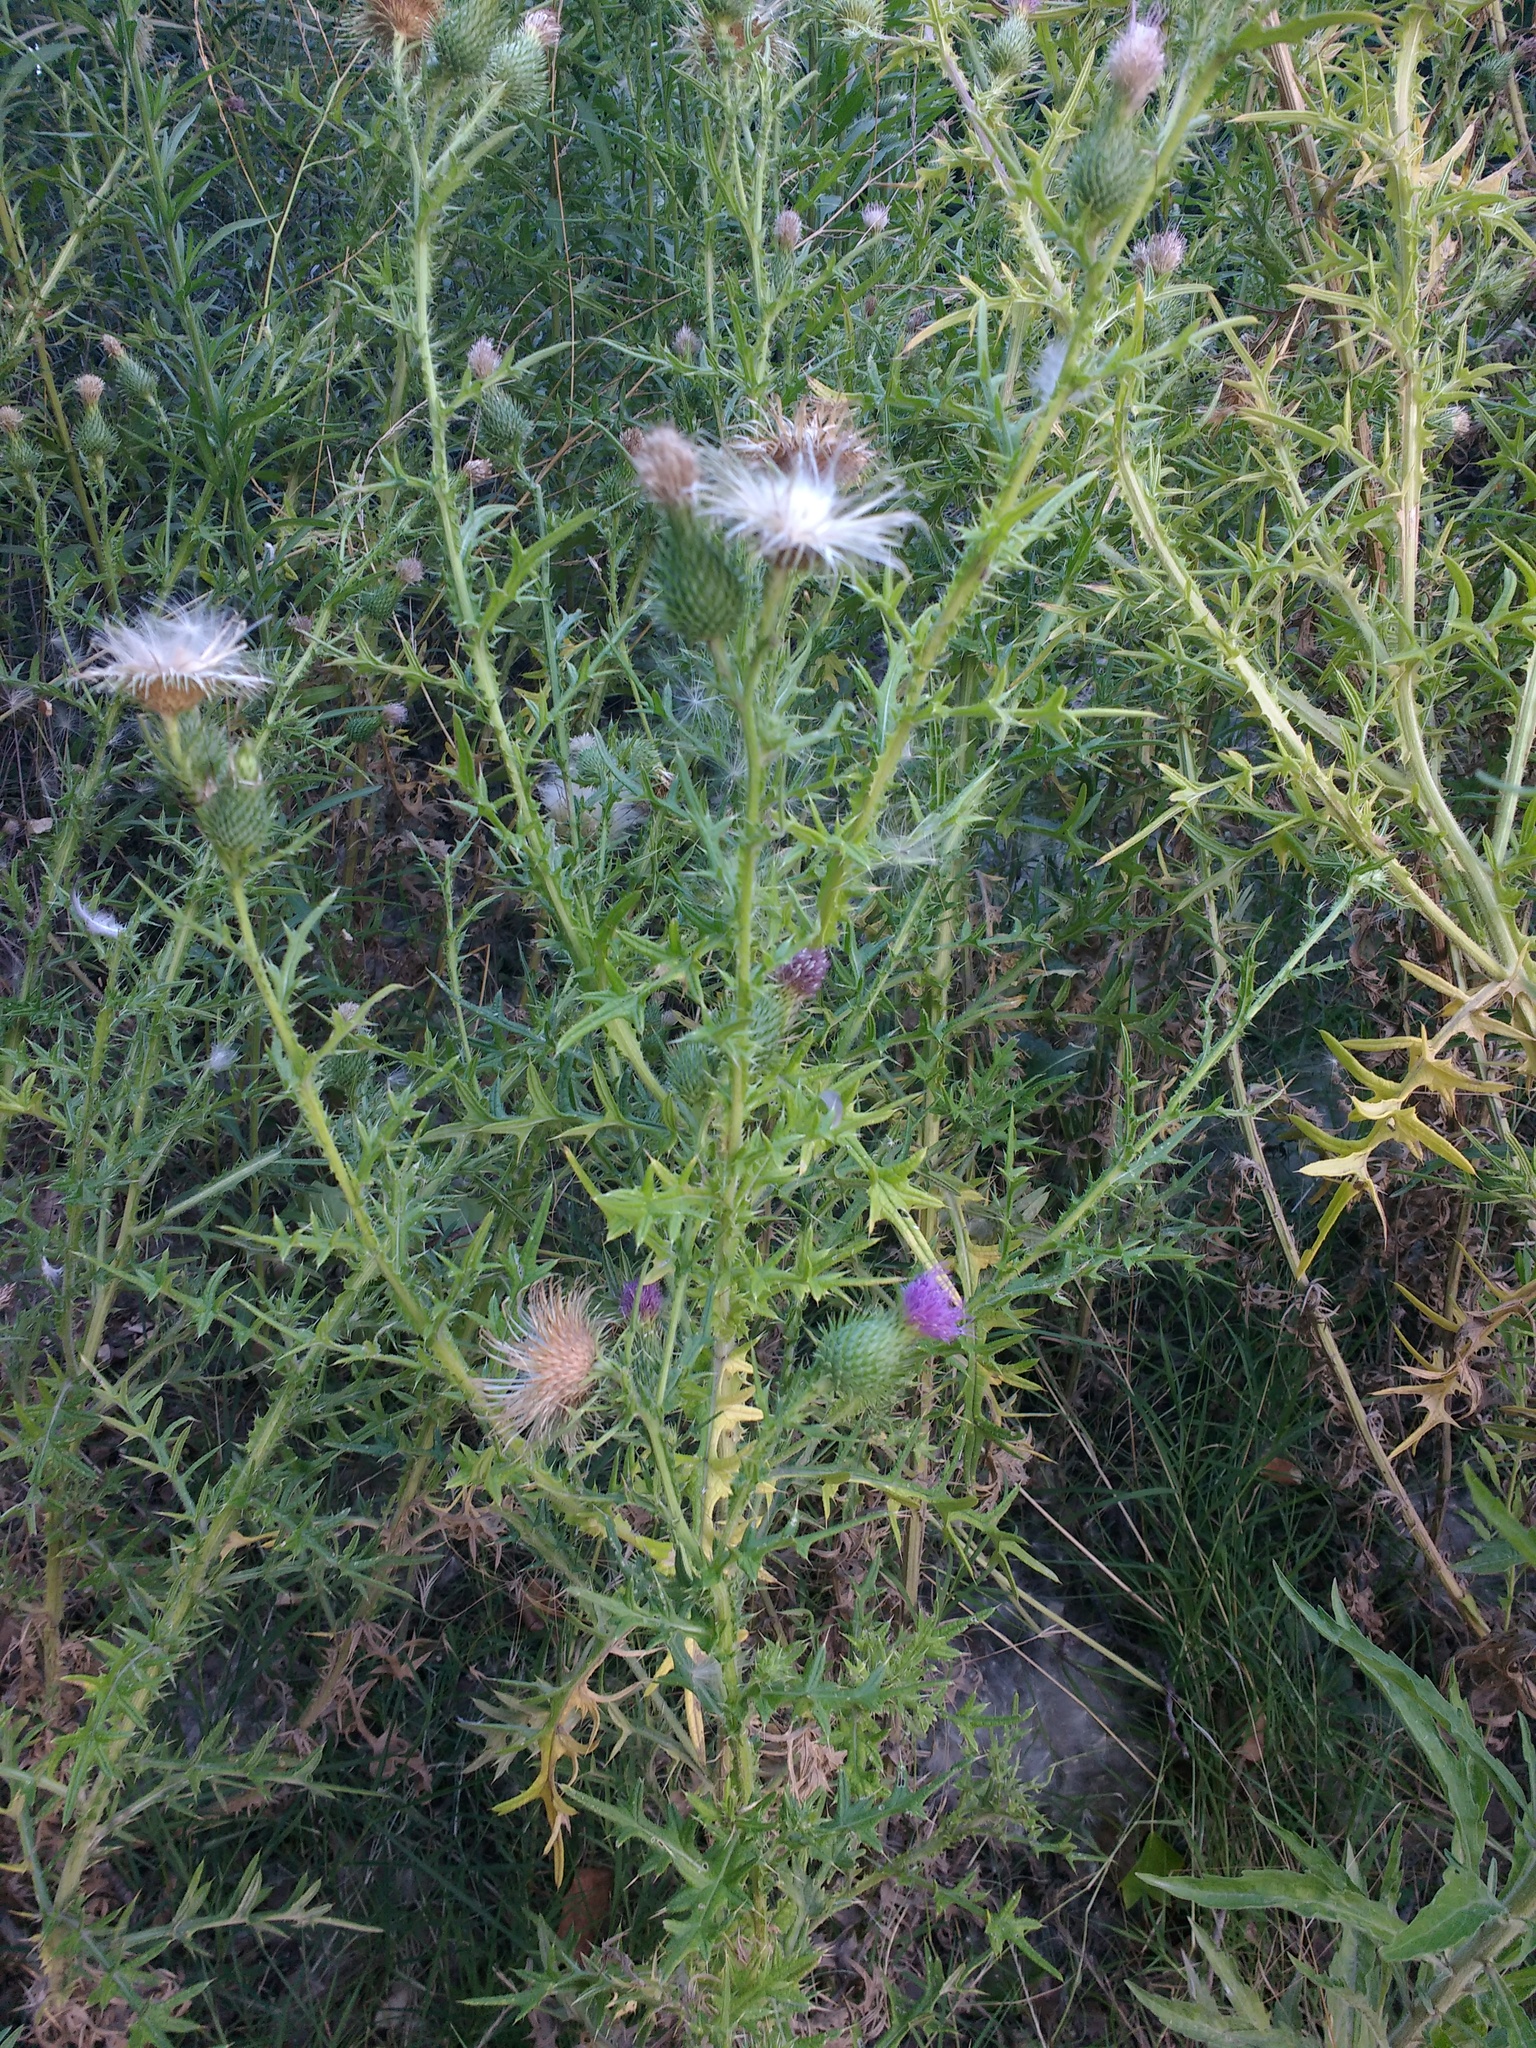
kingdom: Plantae
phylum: Tracheophyta
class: Magnoliopsida
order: Asterales
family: Asteraceae
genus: Cirsium
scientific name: Cirsium vulgare
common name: Bull thistle
